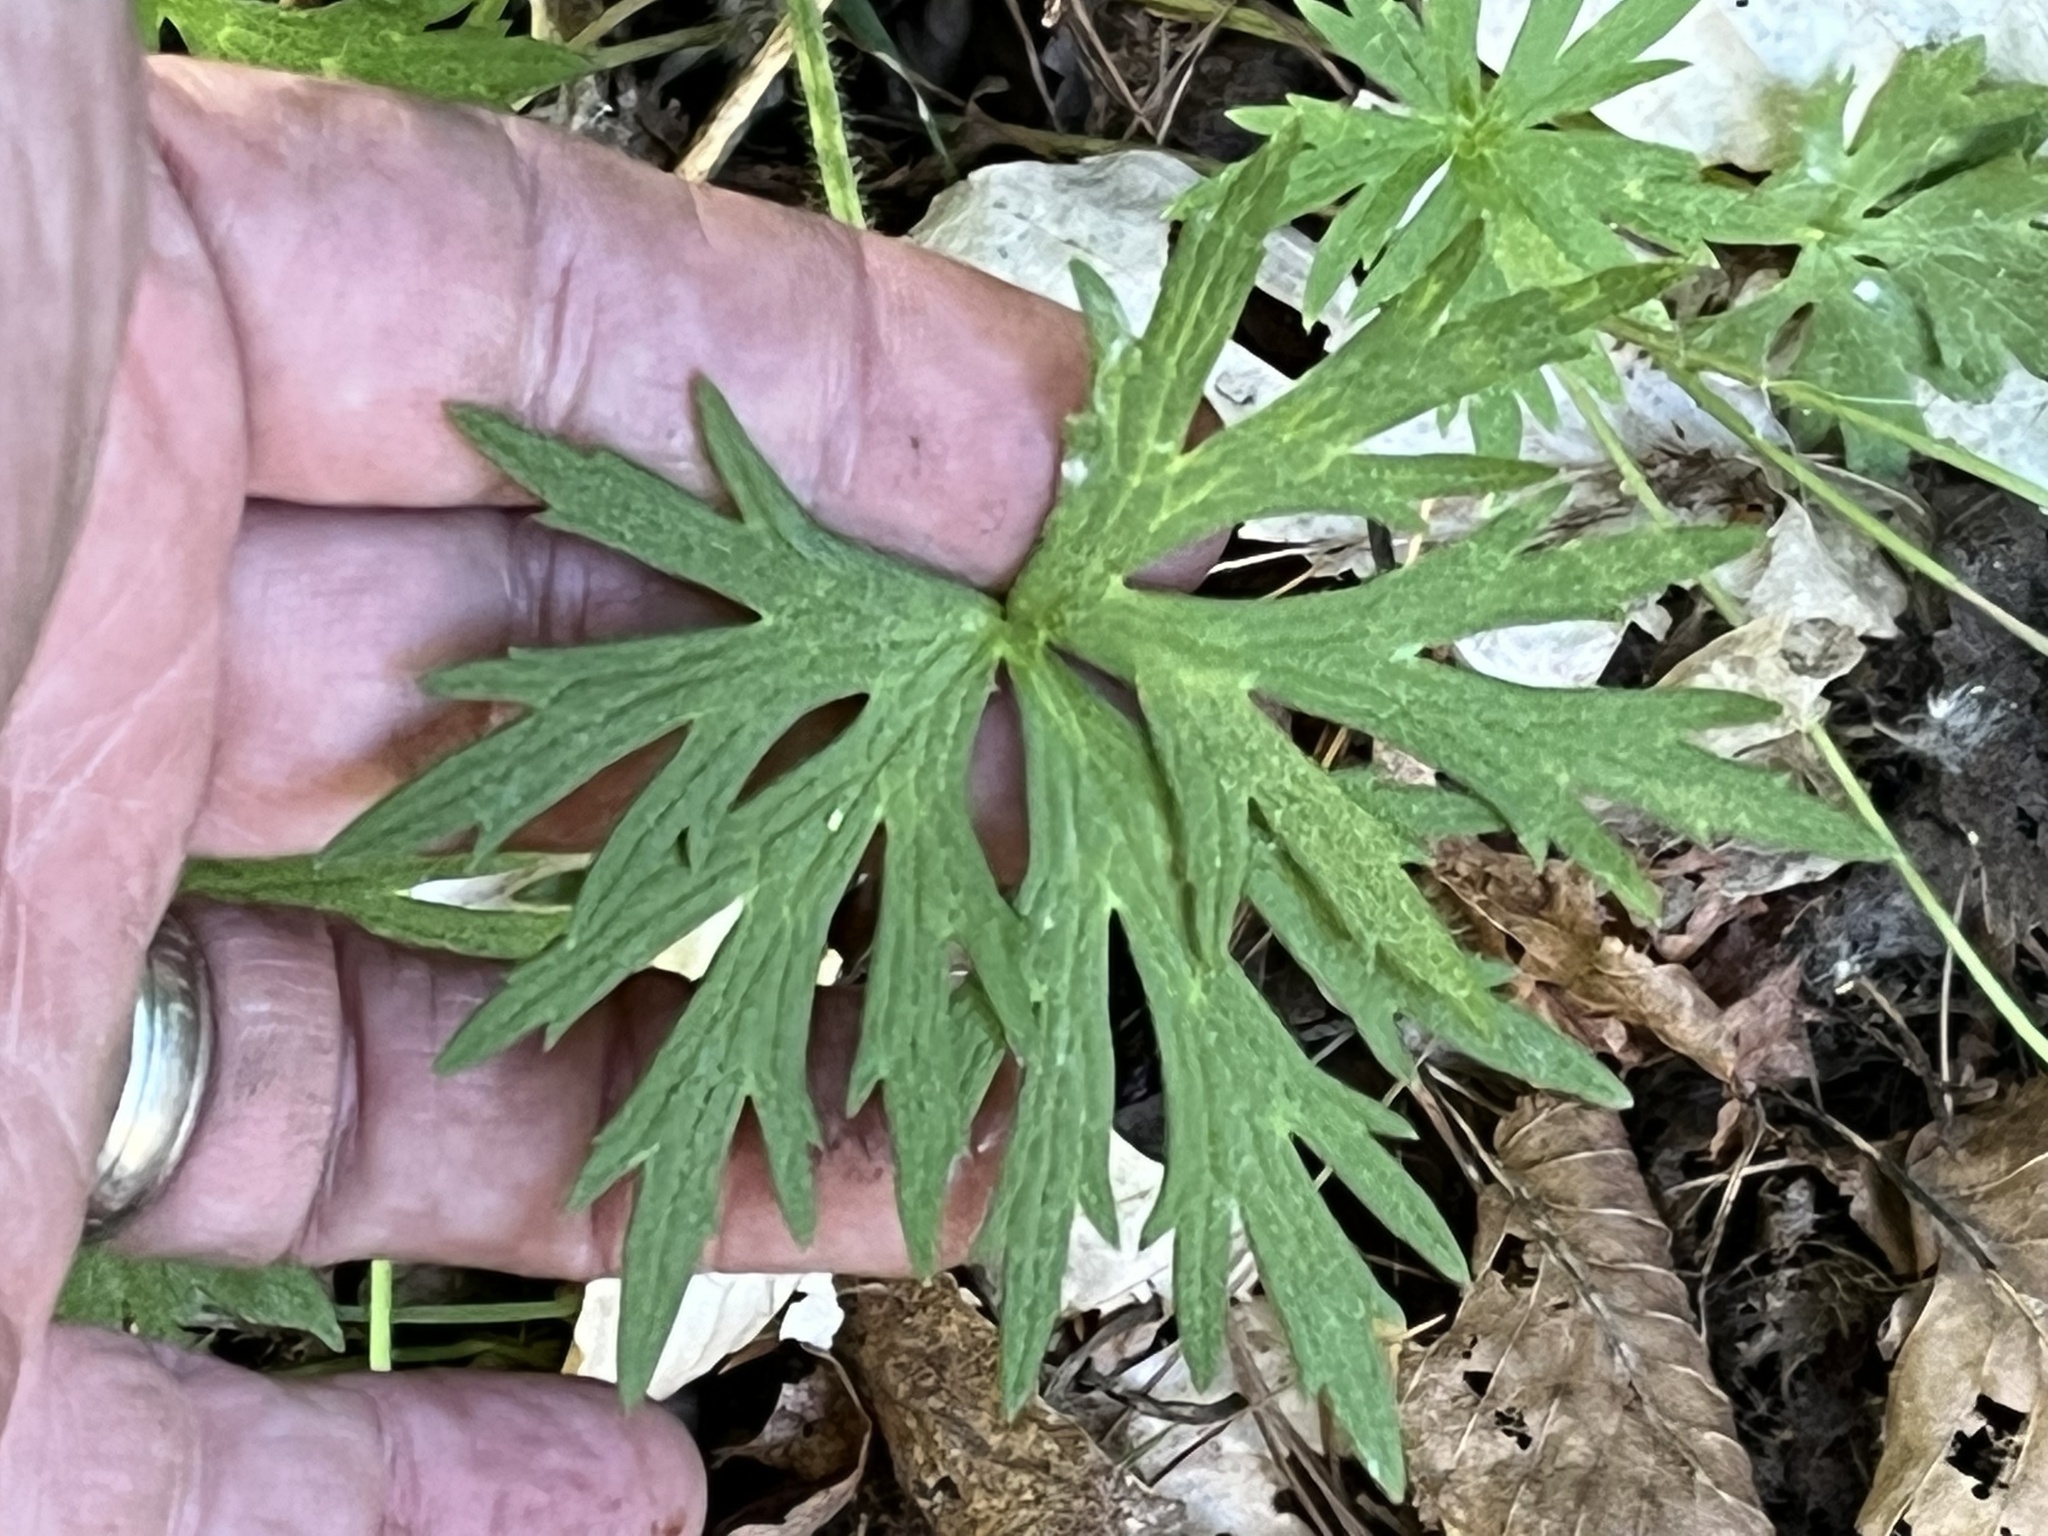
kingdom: Plantae
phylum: Tracheophyta
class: Magnoliopsida
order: Ranunculales
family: Ranunculaceae
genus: Ranunculus
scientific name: Ranunculus acris
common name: Meadow buttercup
